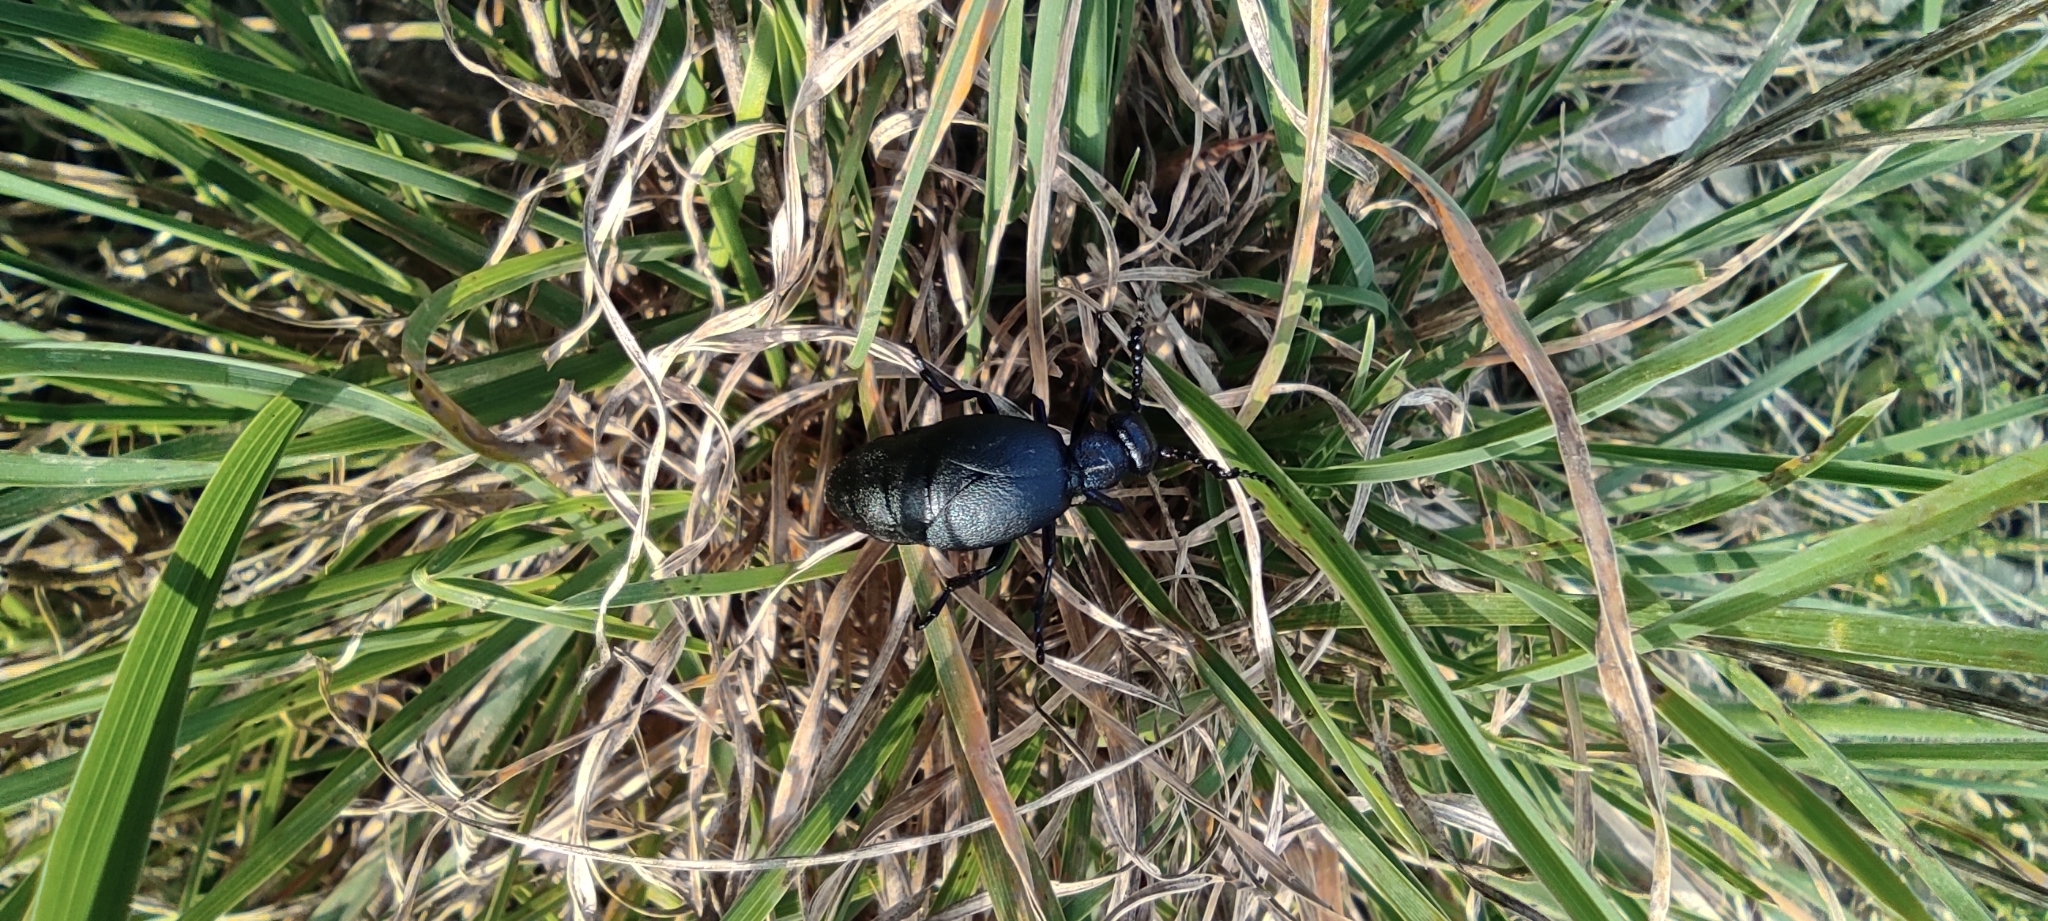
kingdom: Animalia
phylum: Arthropoda
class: Insecta
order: Coleoptera
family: Meloidae
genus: Meloe
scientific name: Meloe proscarabaeus
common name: Black oil-beetle
